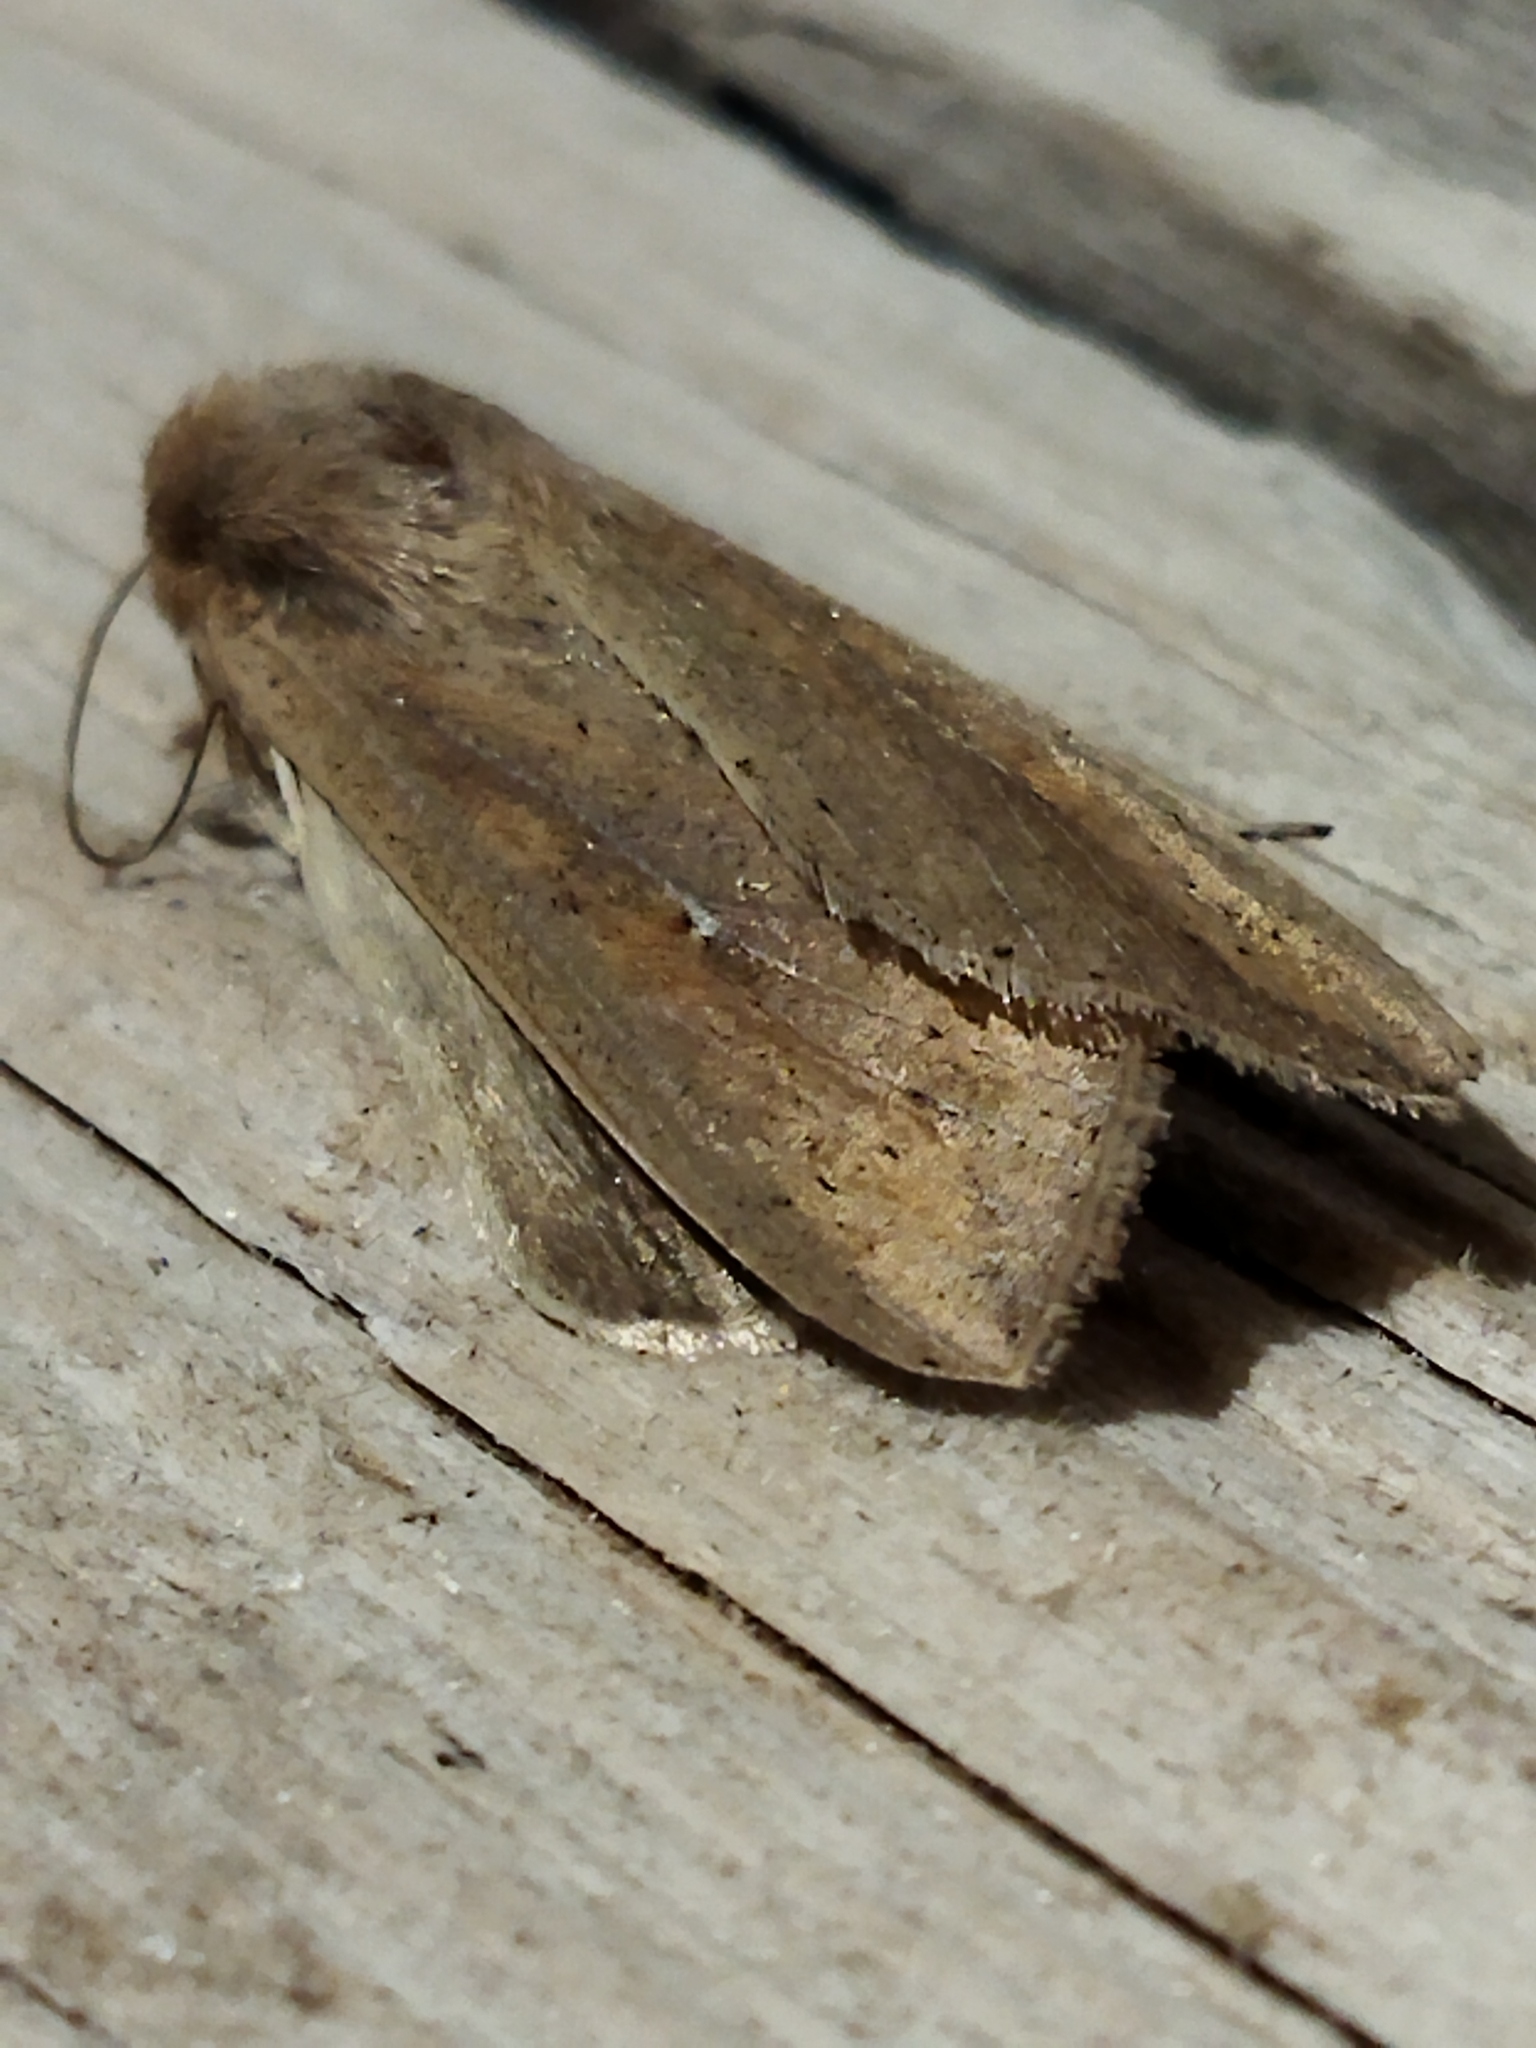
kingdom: Animalia
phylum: Arthropoda
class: Insecta
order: Lepidoptera
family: Noctuidae
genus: Mythimna
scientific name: Mythimna unipuncta
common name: White-speck
